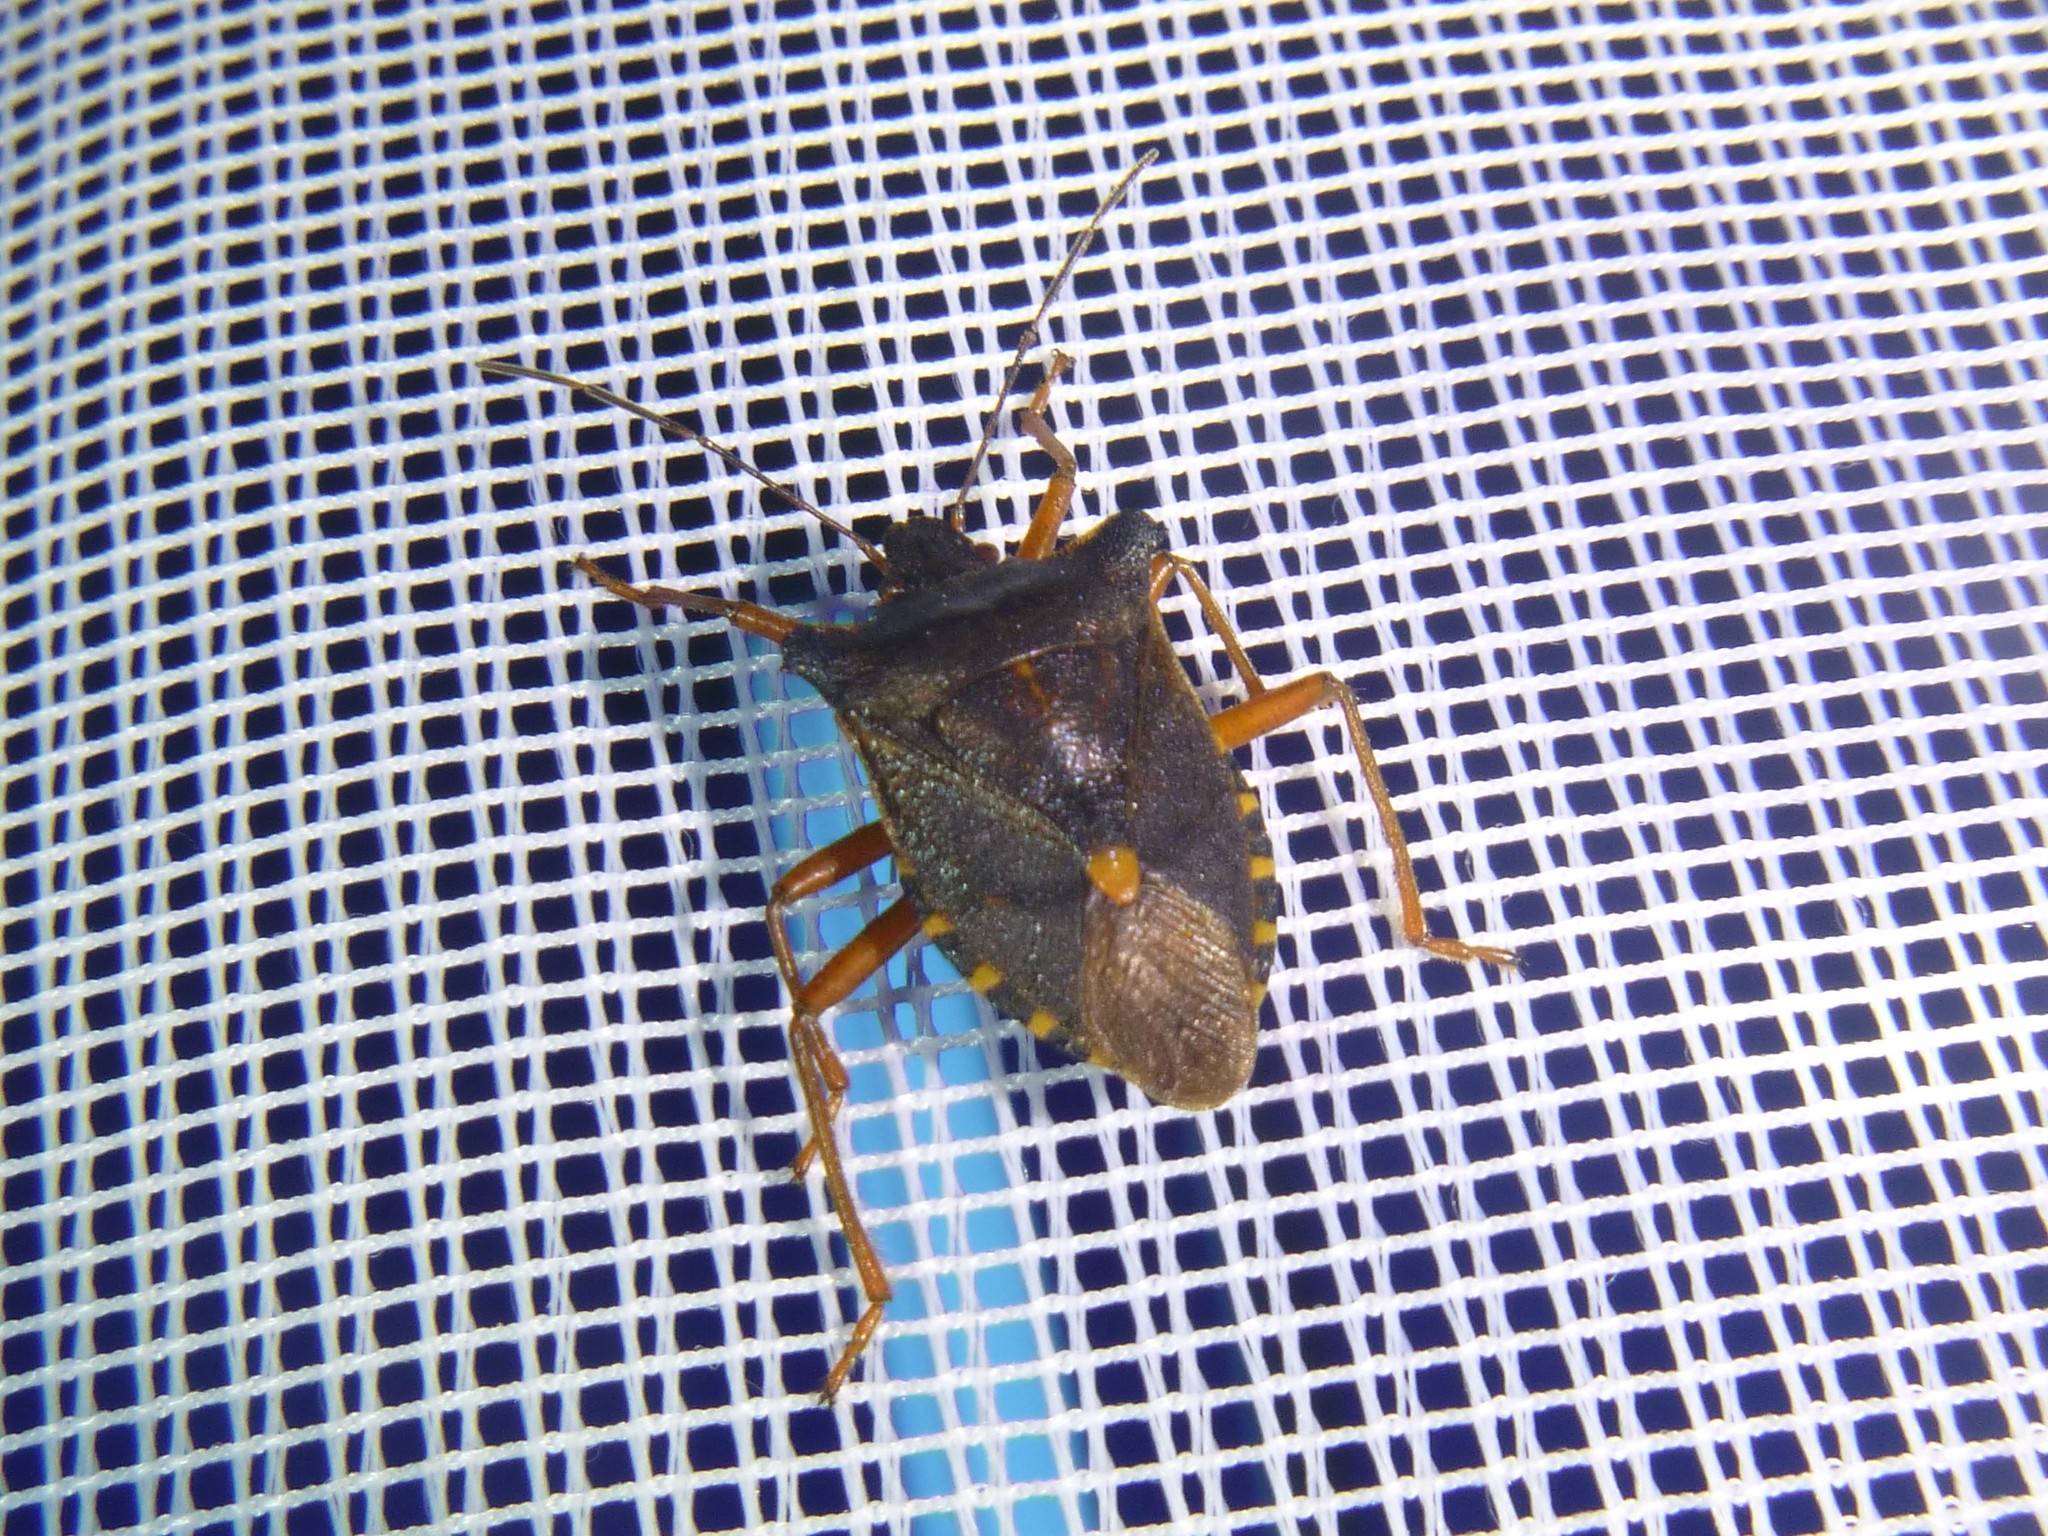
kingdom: Animalia
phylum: Arthropoda
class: Insecta
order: Hemiptera
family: Pentatomidae
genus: Pentatoma
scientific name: Pentatoma rufipes
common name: Forest bug
